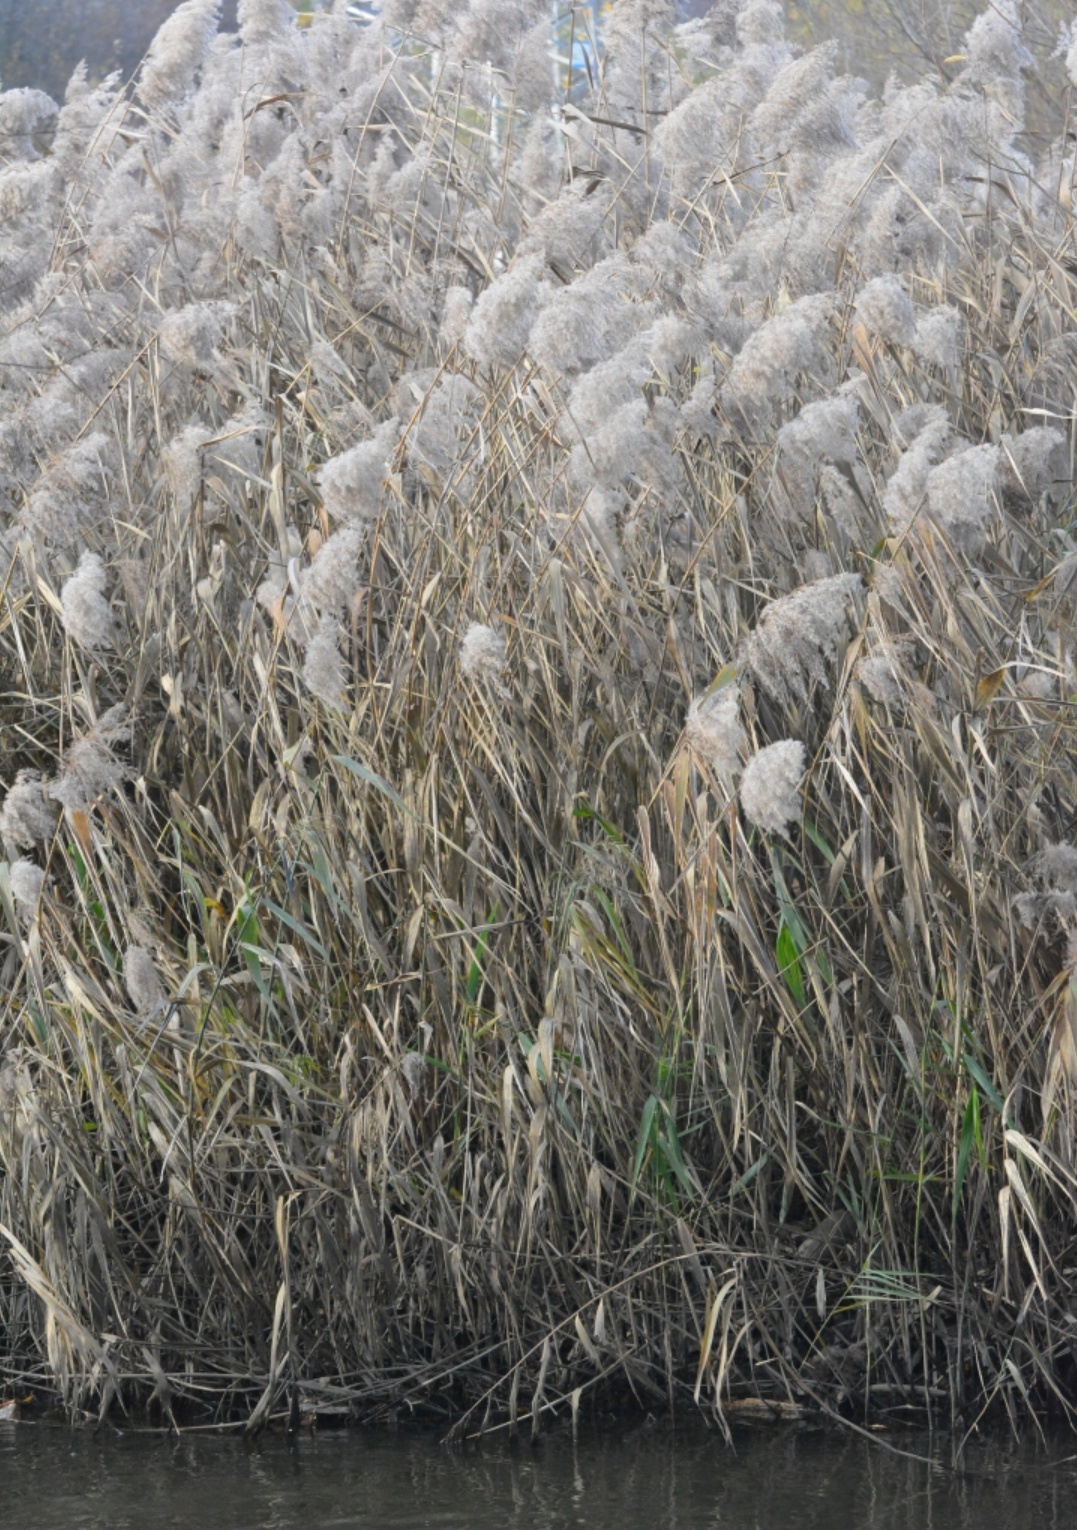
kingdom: Plantae
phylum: Tracheophyta
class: Liliopsida
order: Poales
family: Poaceae
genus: Phragmites
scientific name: Phragmites australis
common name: Common reed
